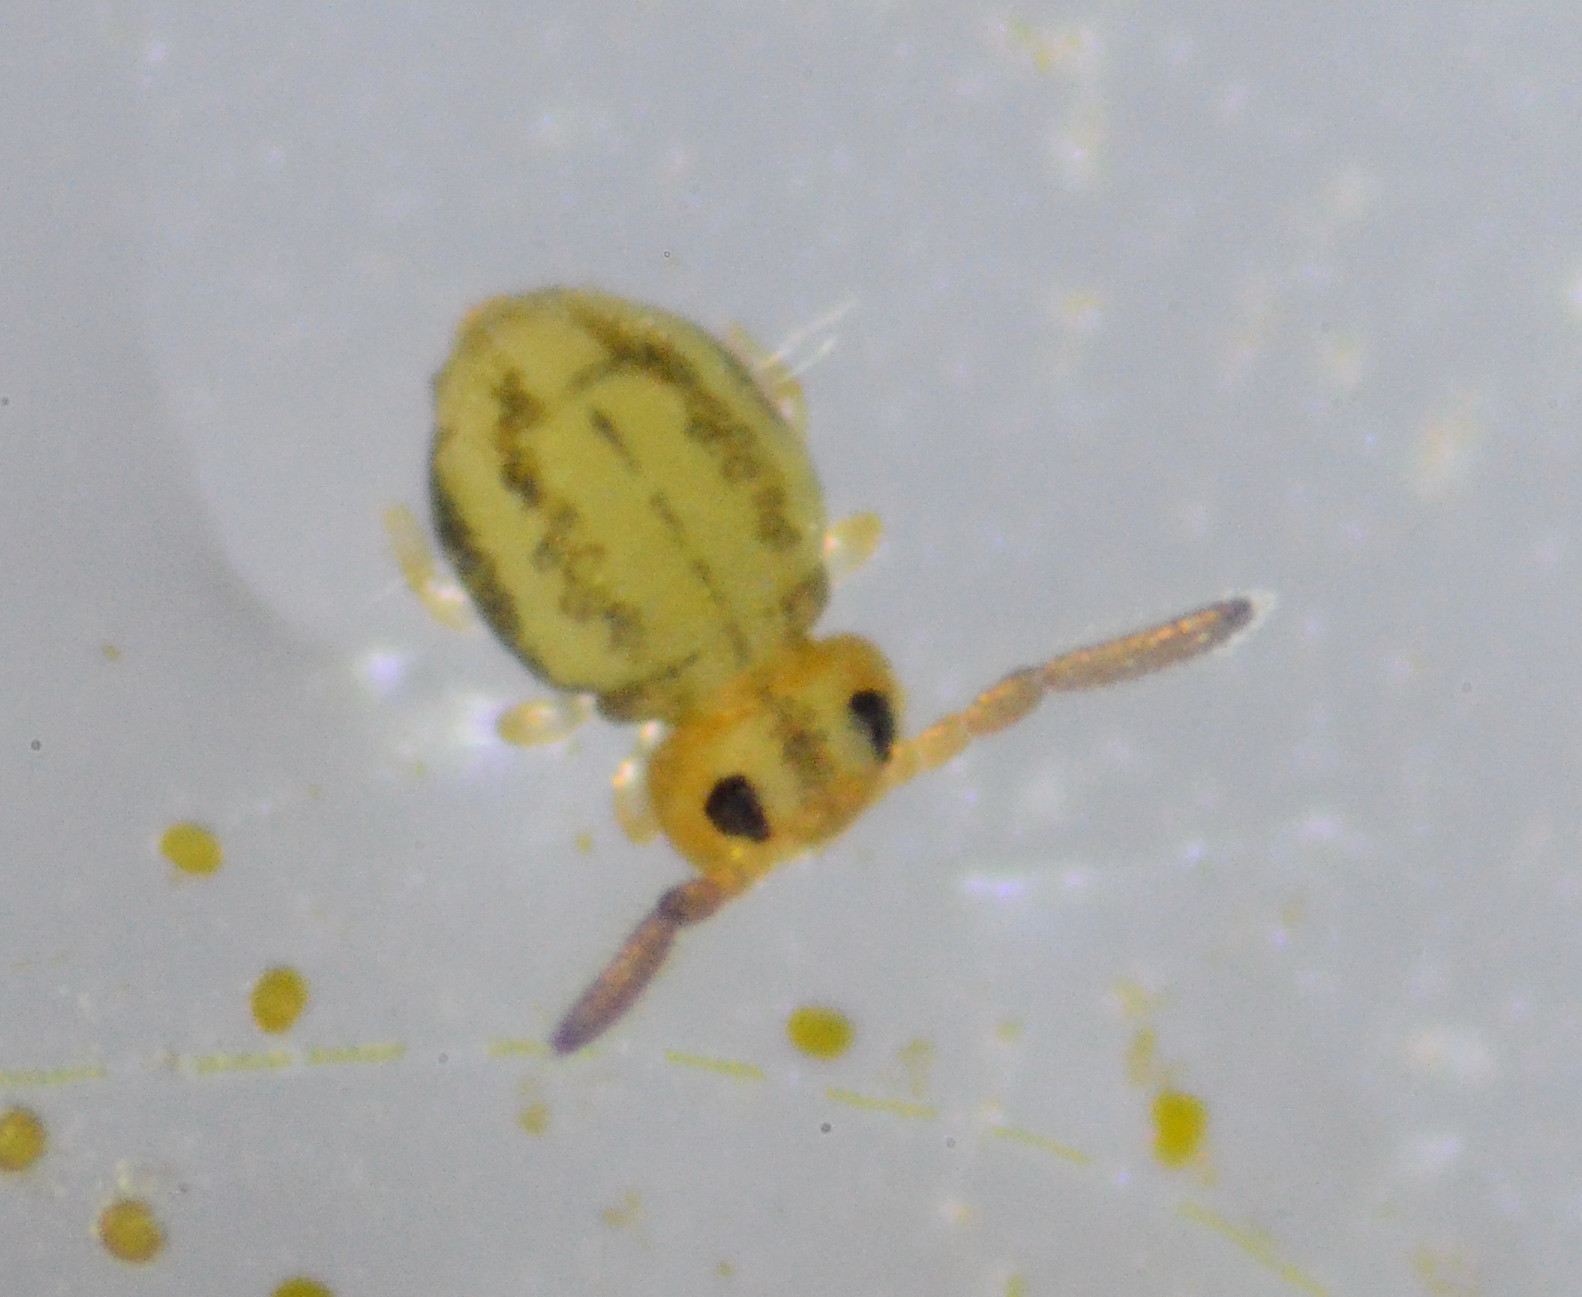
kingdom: Animalia
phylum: Arthropoda
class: Collembola
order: Symphypleona
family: Katiannidae
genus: Sminthurinus
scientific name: Sminthurinus elegans
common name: Globular springtail
